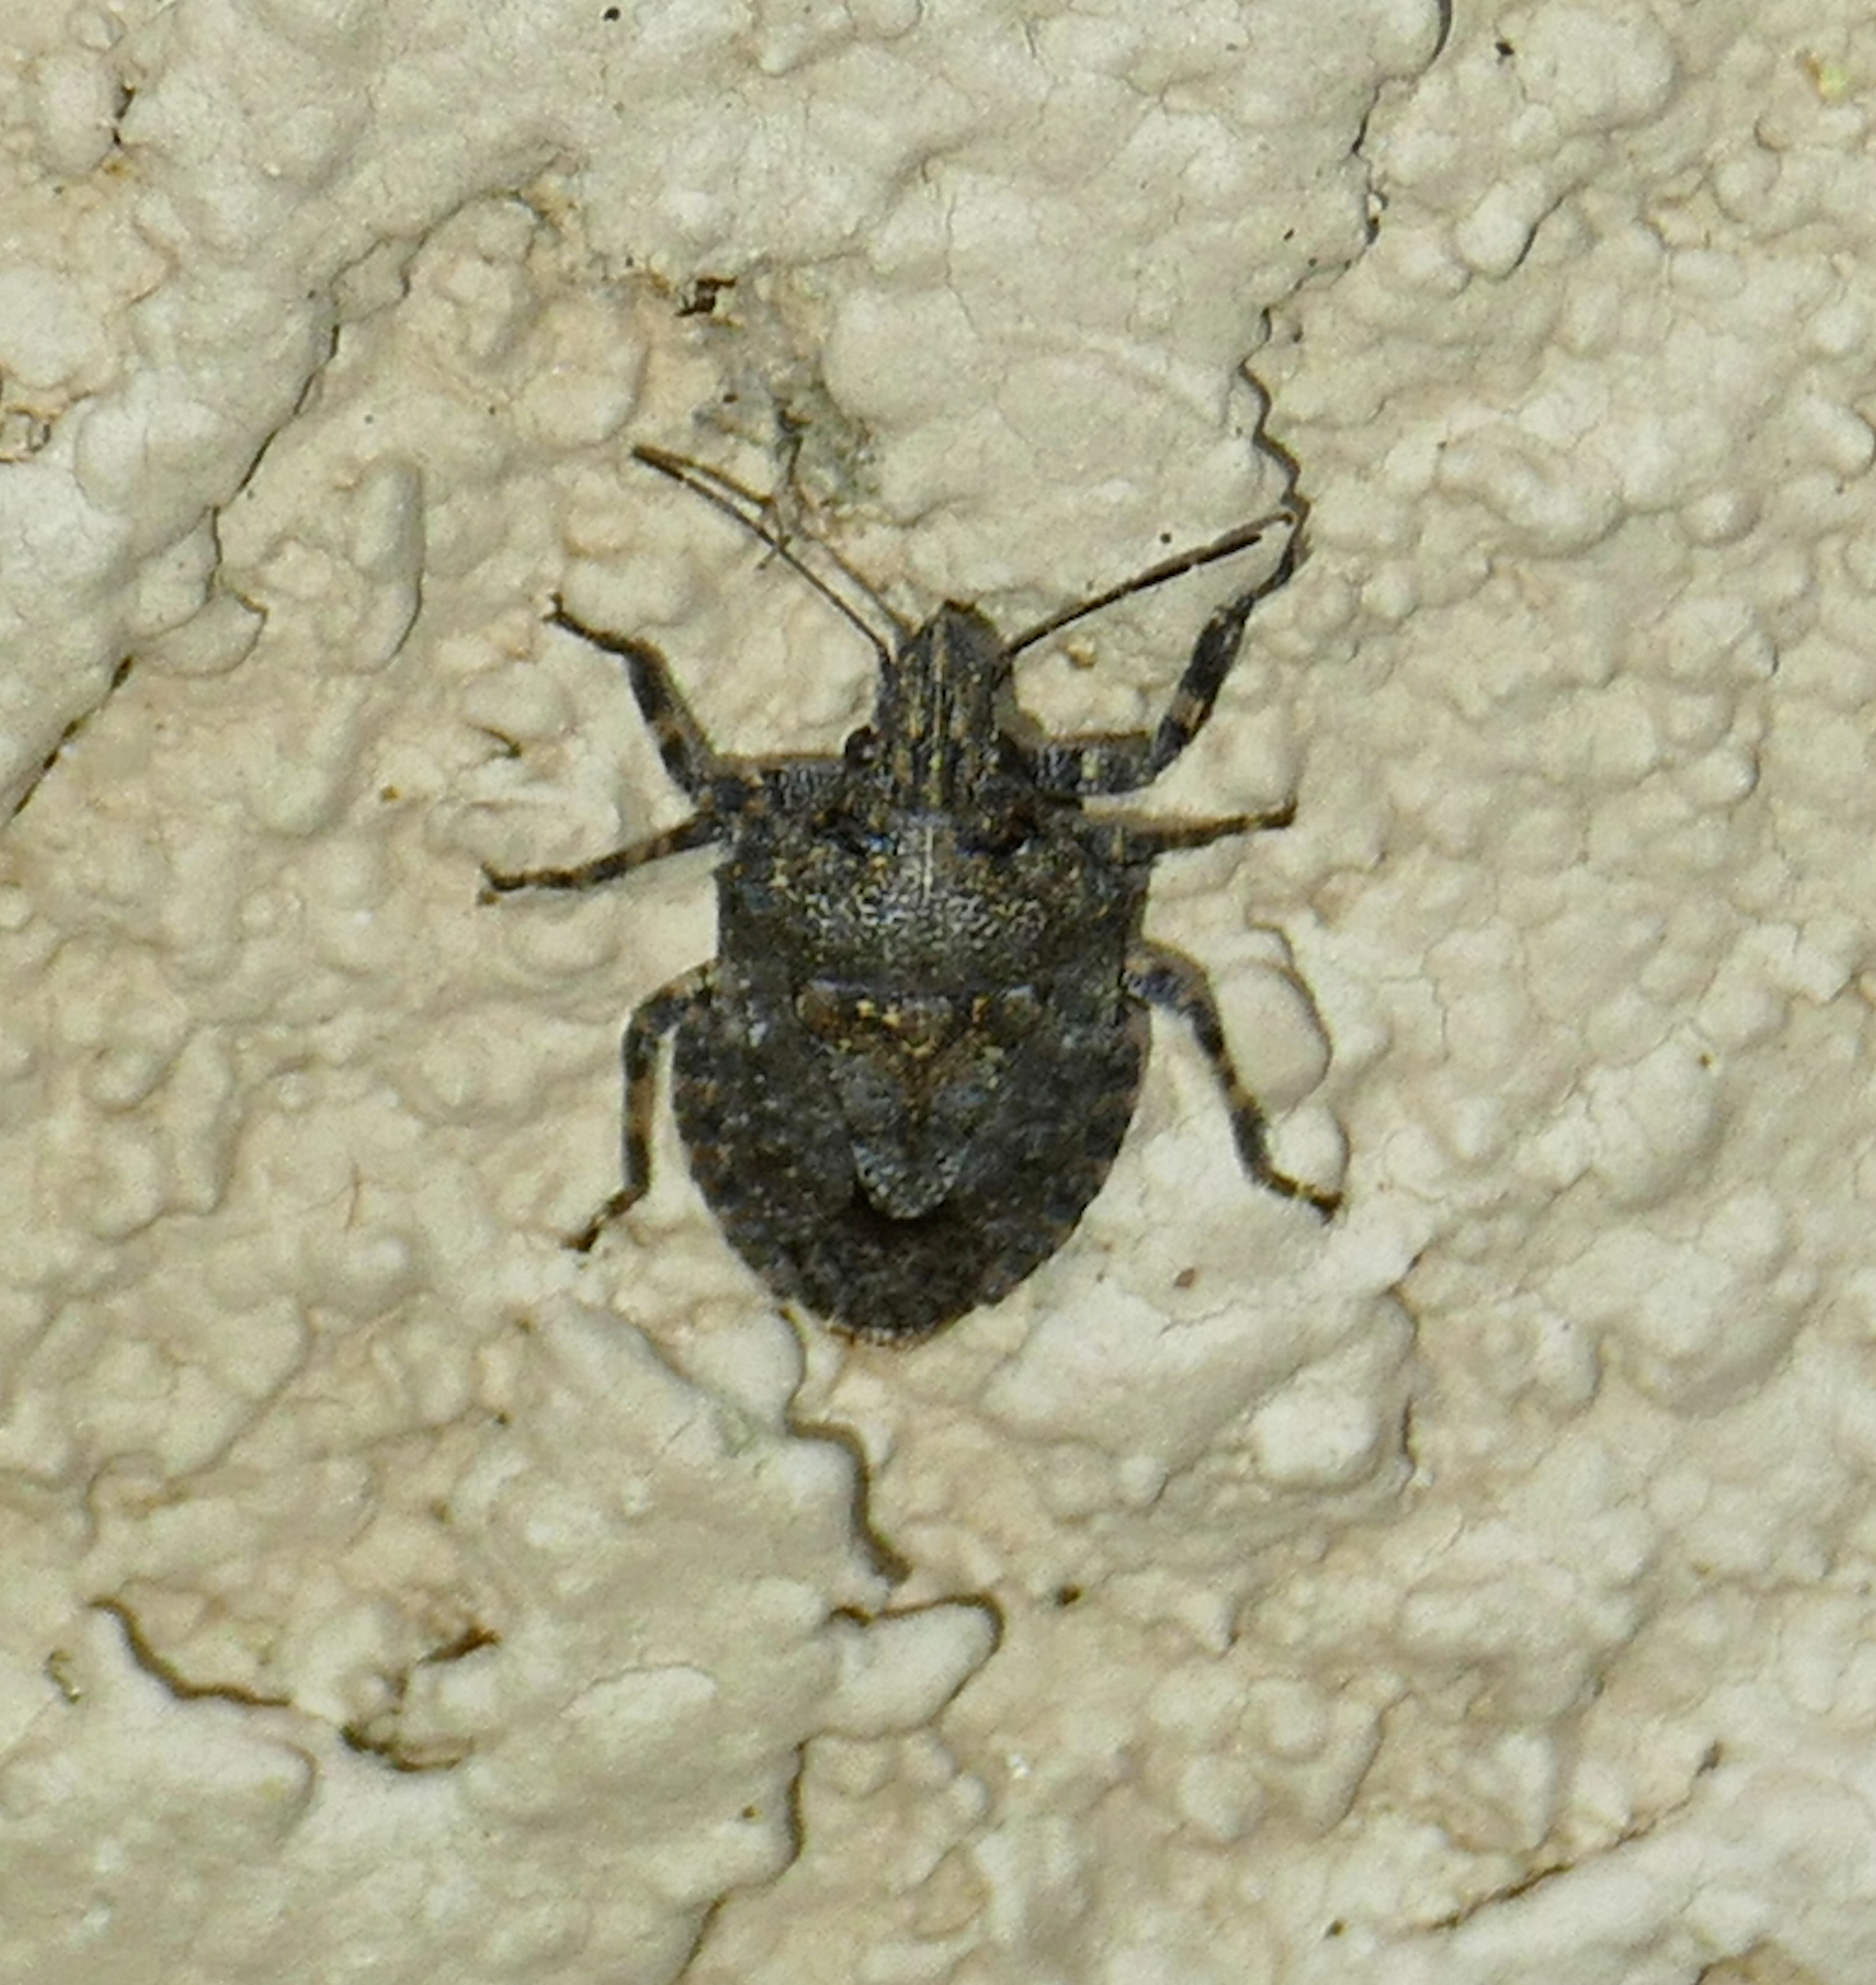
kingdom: Animalia
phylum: Arthropoda
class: Insecta
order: Hemiptera
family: Pentatomidae
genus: Brochymena
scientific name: Brochymena parva
